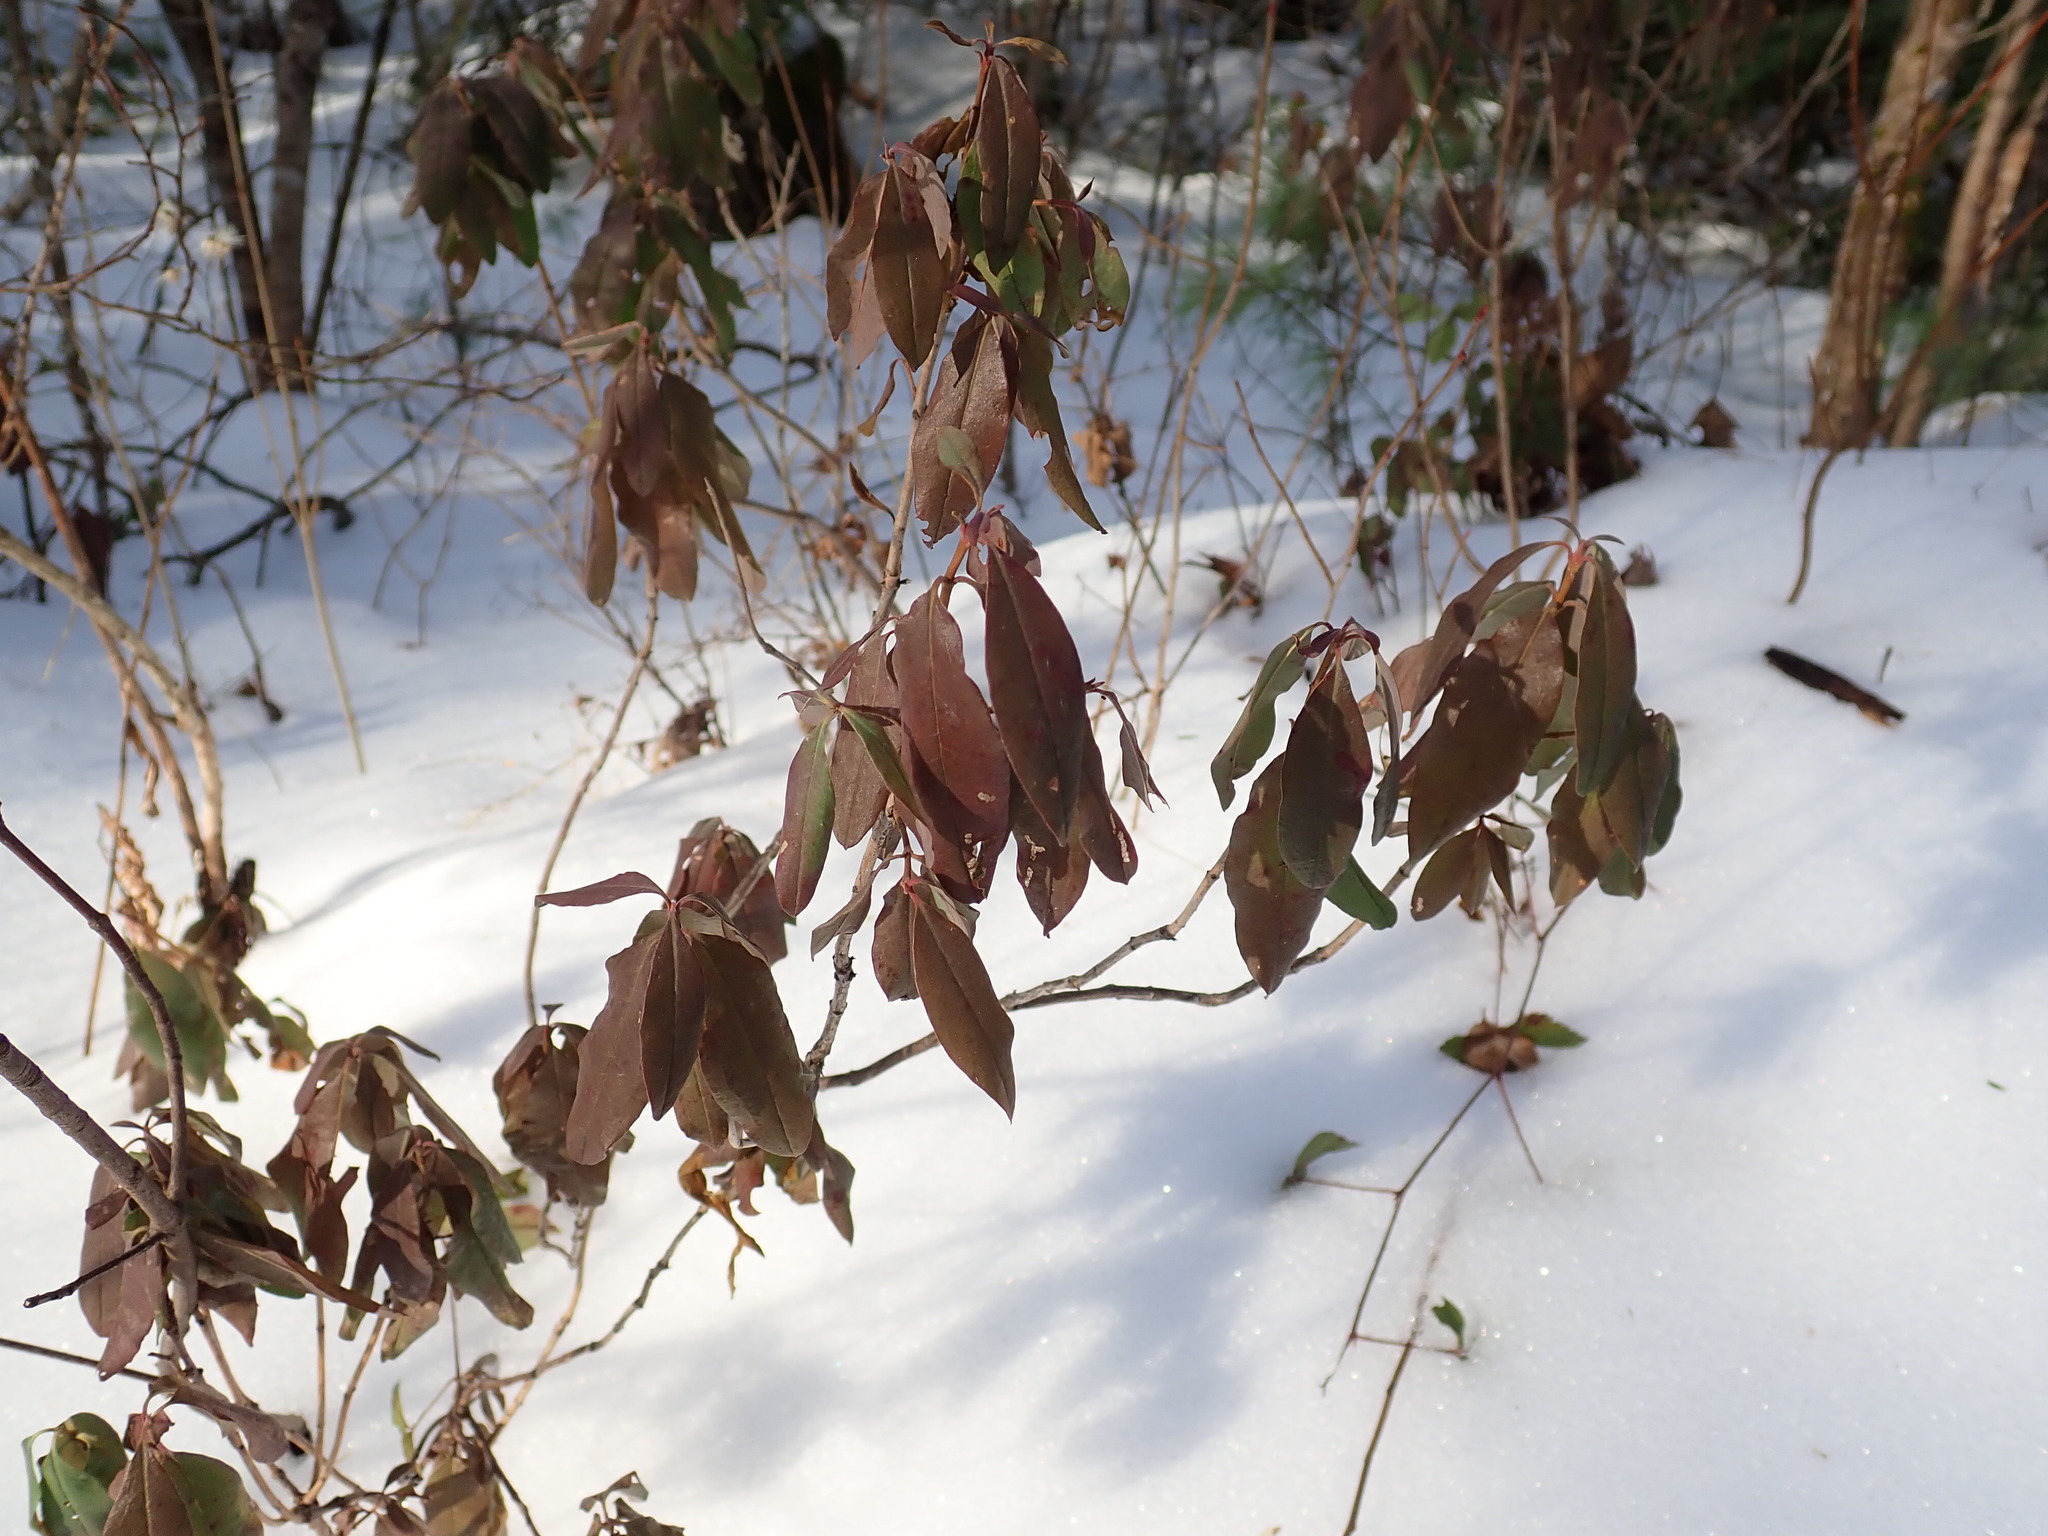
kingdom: Plantae
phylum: Tracheophyta
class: Magnoliopsida
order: Ericales
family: Ericaceae
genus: Kalmia
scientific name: Kalmia angustifolia
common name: Sheep-laurel
